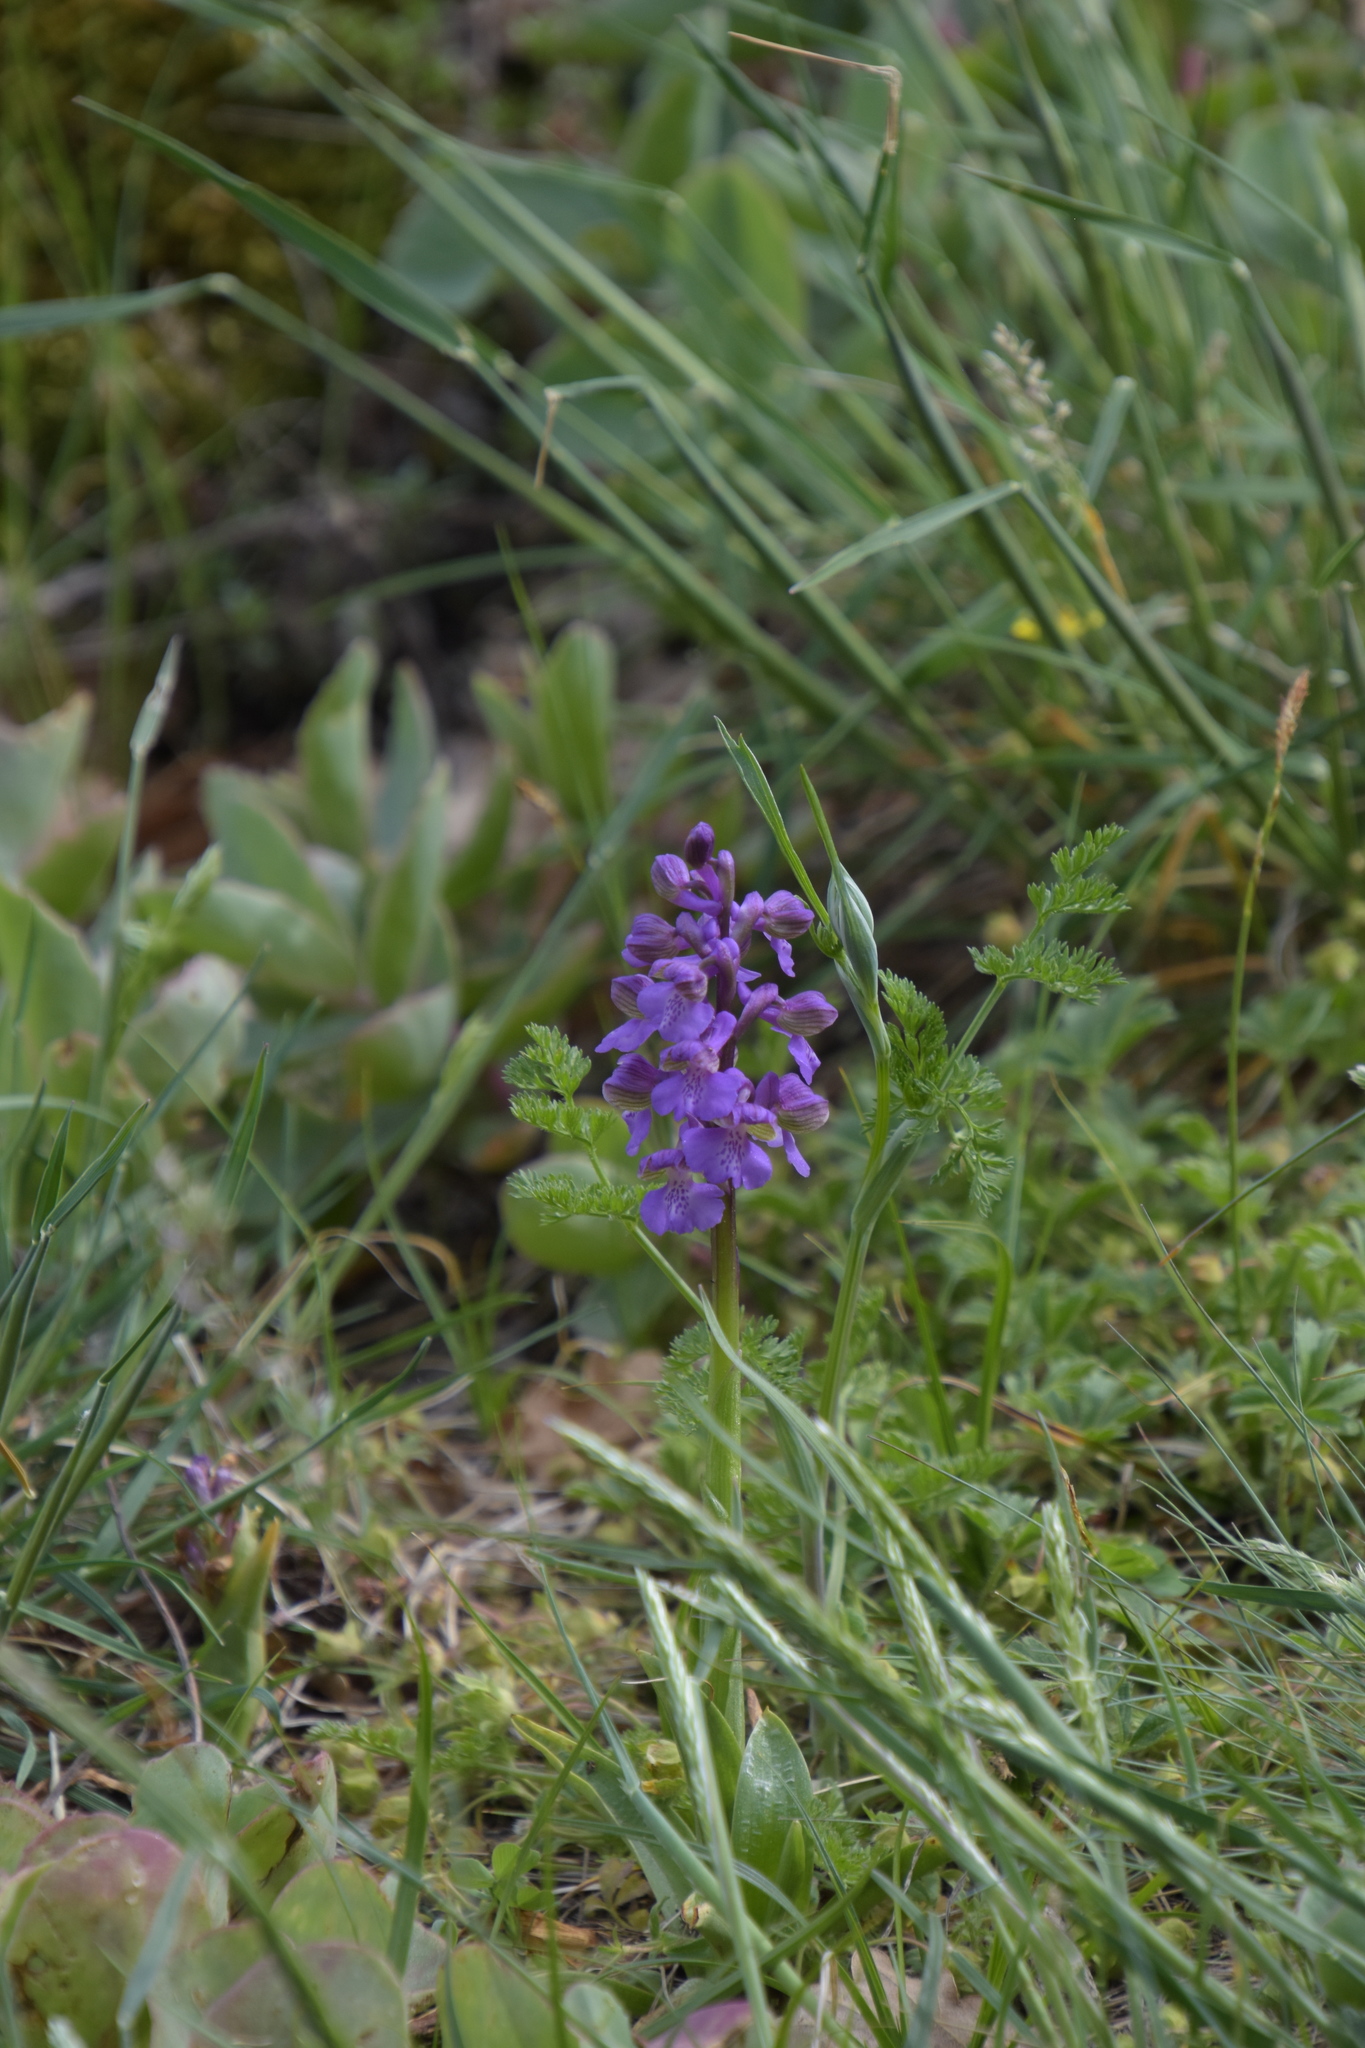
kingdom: Plantae
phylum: Tracheophyta
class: Liliopsida
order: Asparagales
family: Orchidaceae
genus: Anacamptis
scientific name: Anacamptis morio
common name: Green-winged orchid
